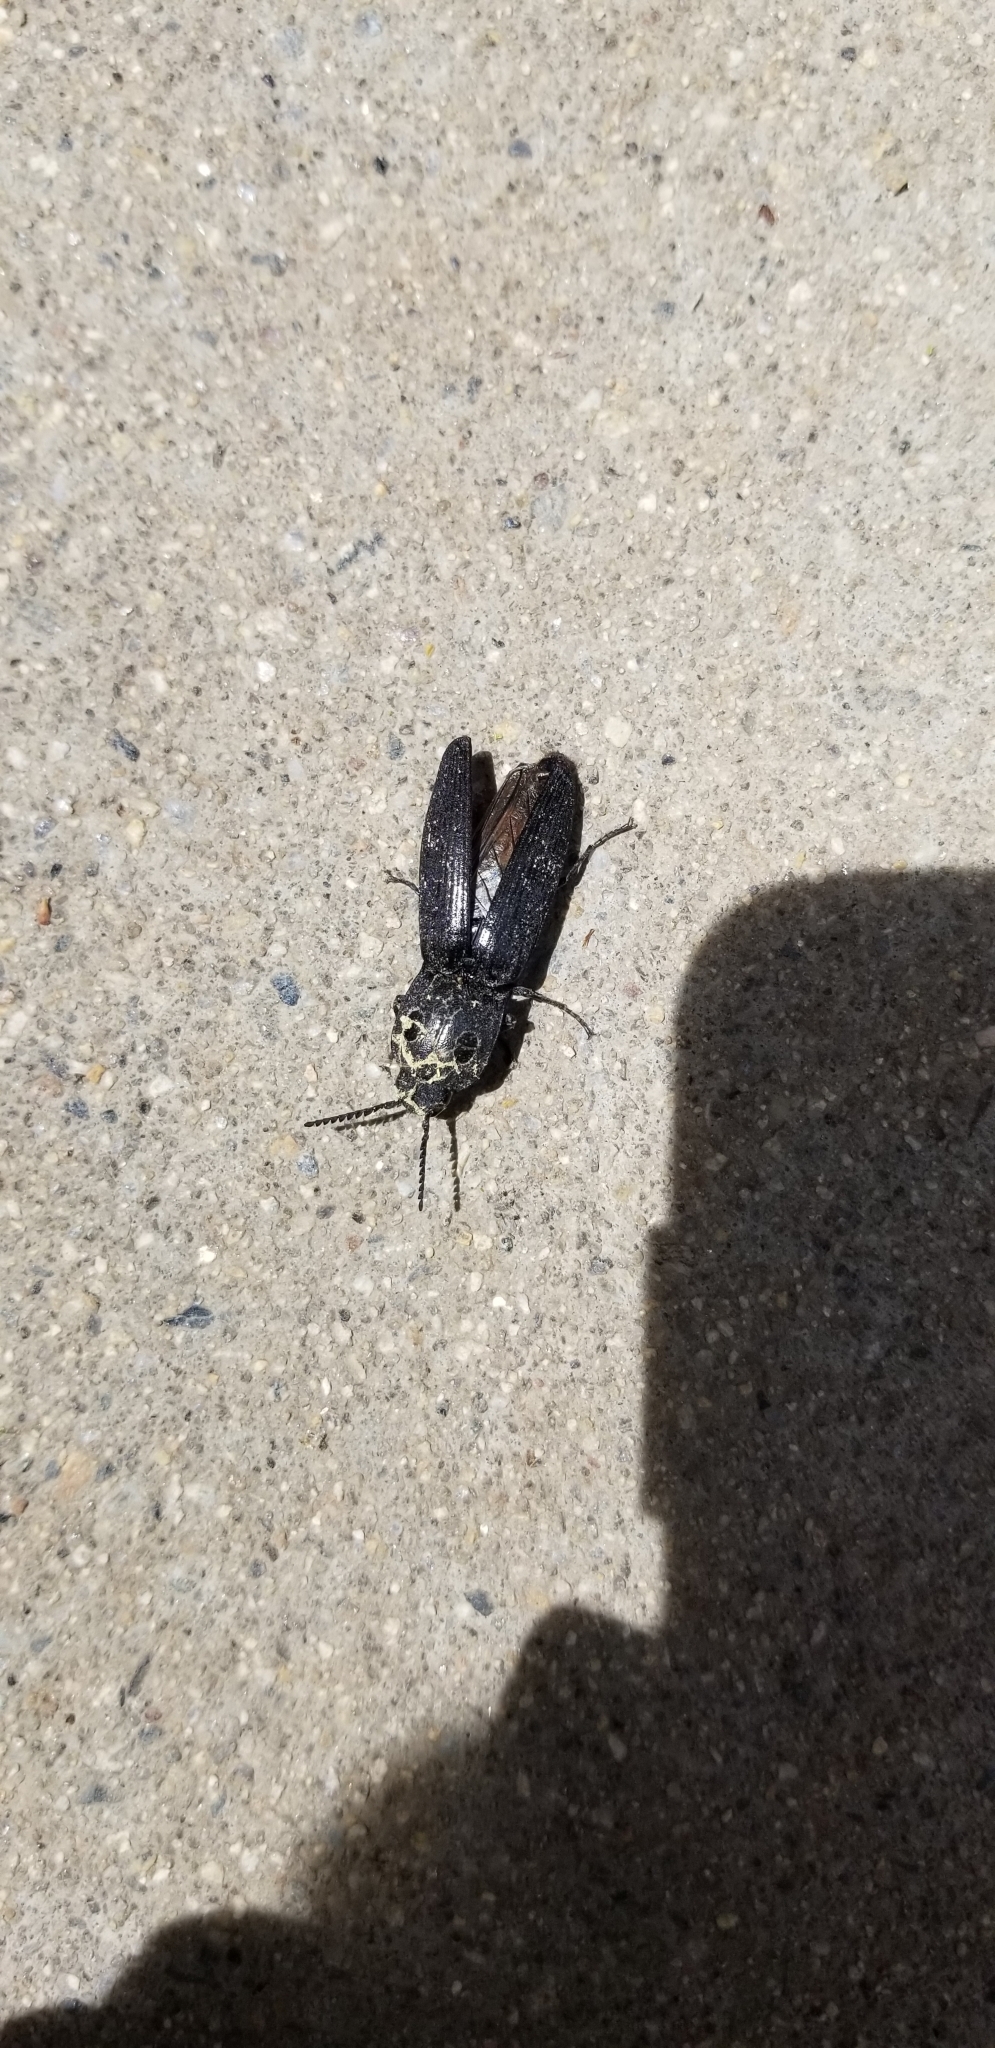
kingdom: Animalia
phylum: Arthropoda
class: Insecta
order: Coleoptera
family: Elateridae
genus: Alaus
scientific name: Alaus melanops
